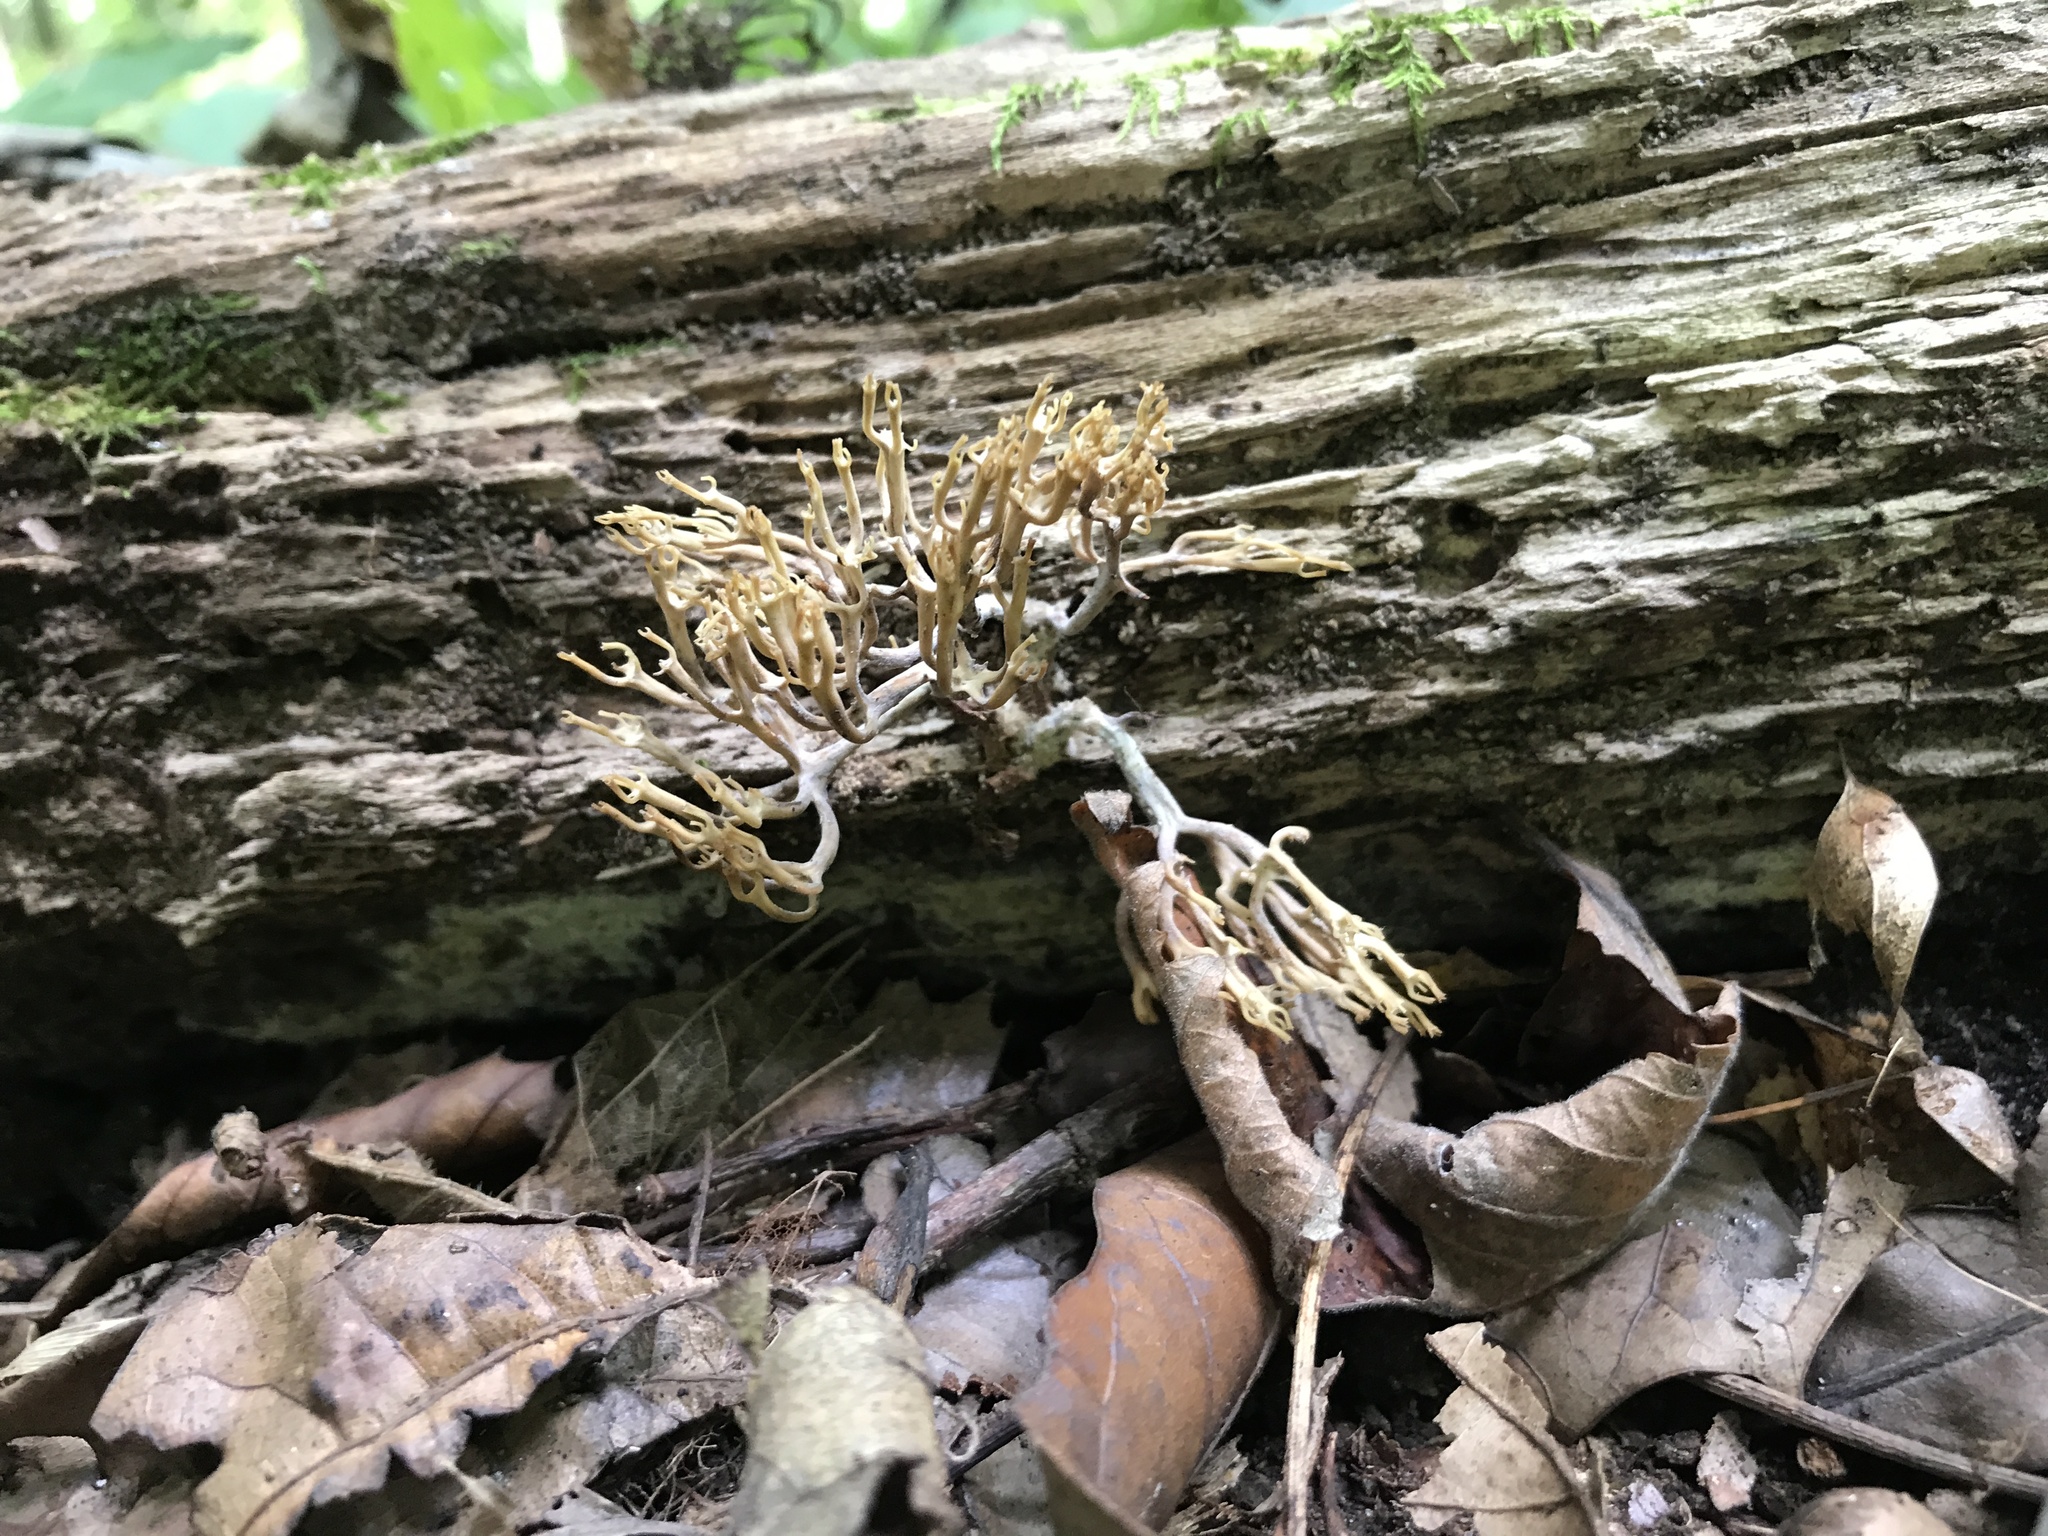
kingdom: Fungi
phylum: Basidiomycota
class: Agaricomycetes
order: Russulales
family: Auriscalpiaceae
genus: Artomyces
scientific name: Artomyces pyxidatus
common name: Crown-tipped coral fungus
